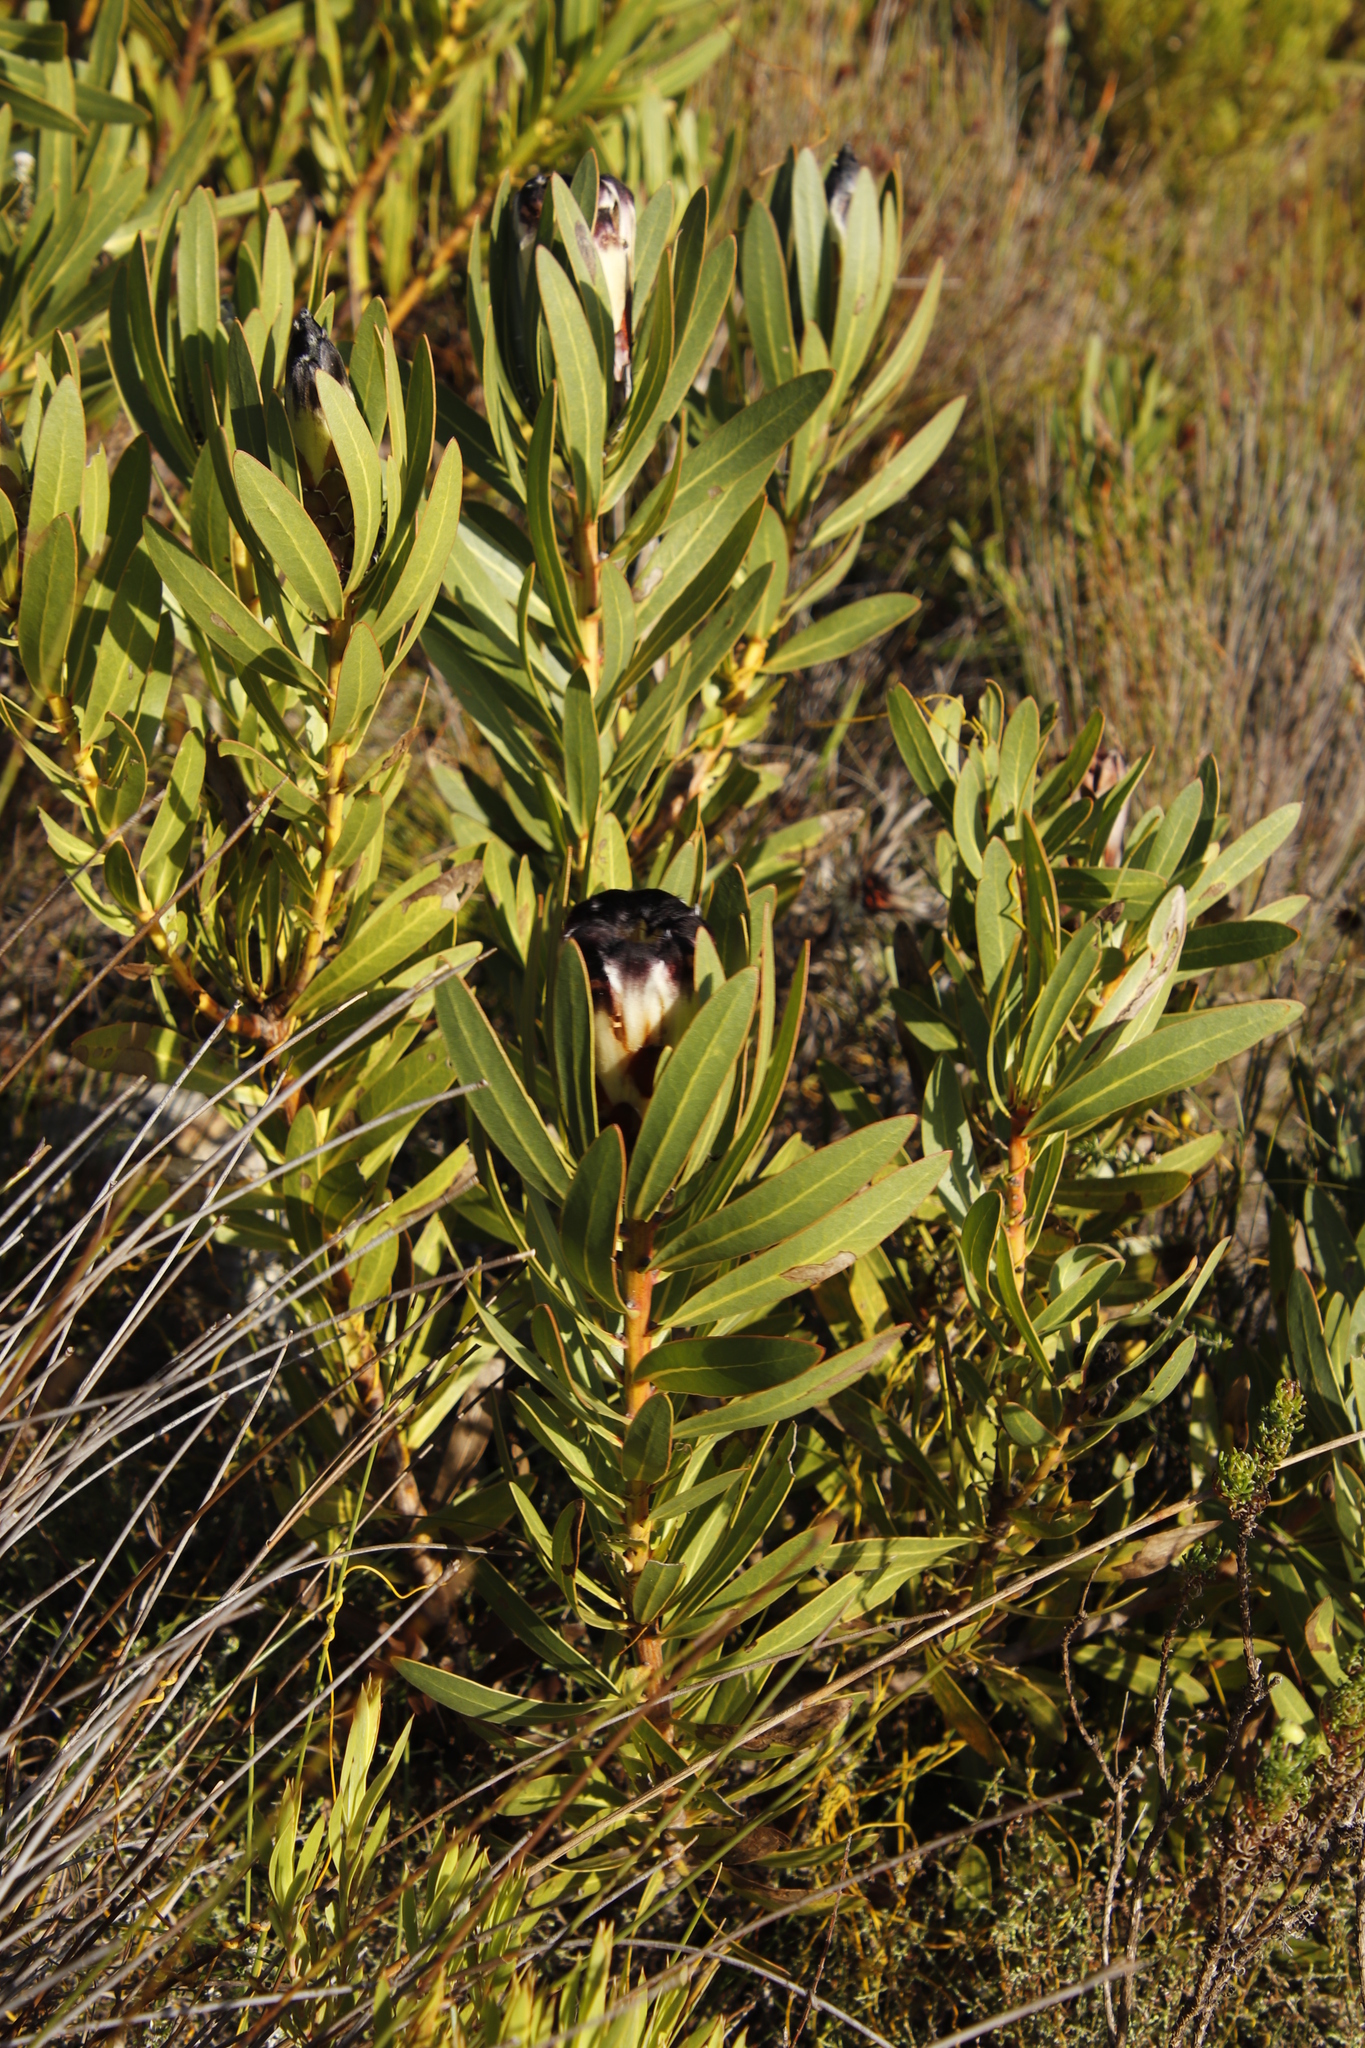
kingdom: Plantae
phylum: Tracheophyta
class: Magnoliopsida
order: Proteales
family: Proteaceae
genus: Protea
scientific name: Protea lepidocarpodendron
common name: Black-bearded protea
